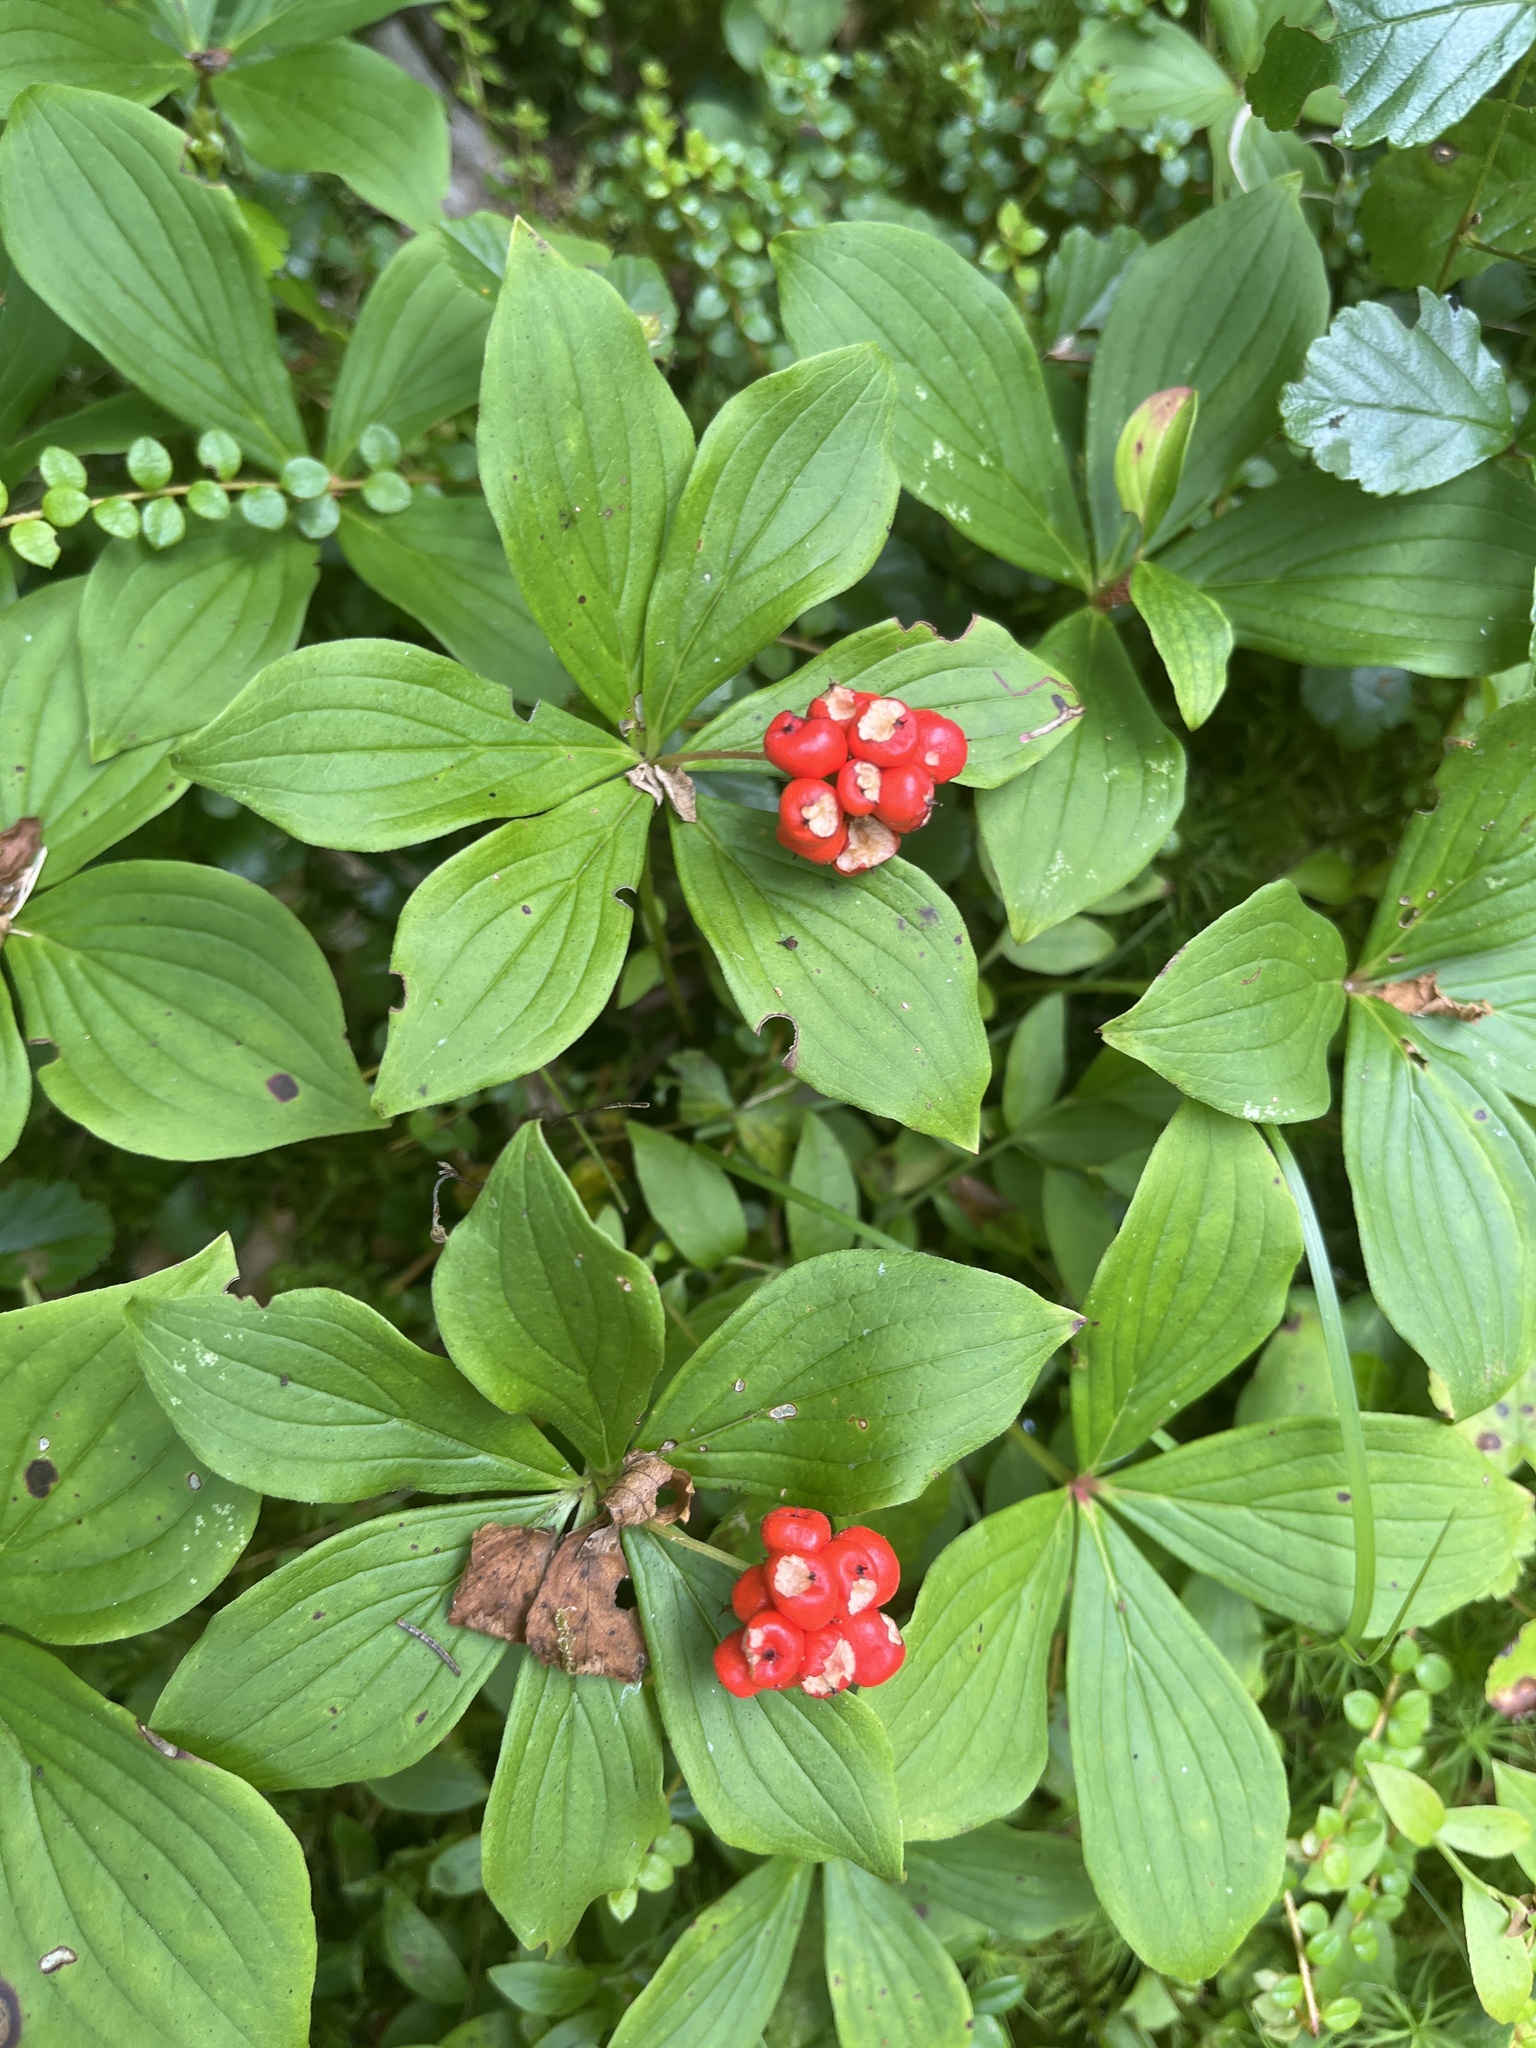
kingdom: Plantae
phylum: Tracheophyta
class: Magnoliopsida
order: Cornales
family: Cornaceae
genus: Cornus
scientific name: Cornus canadensis
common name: Creeping dogwood
